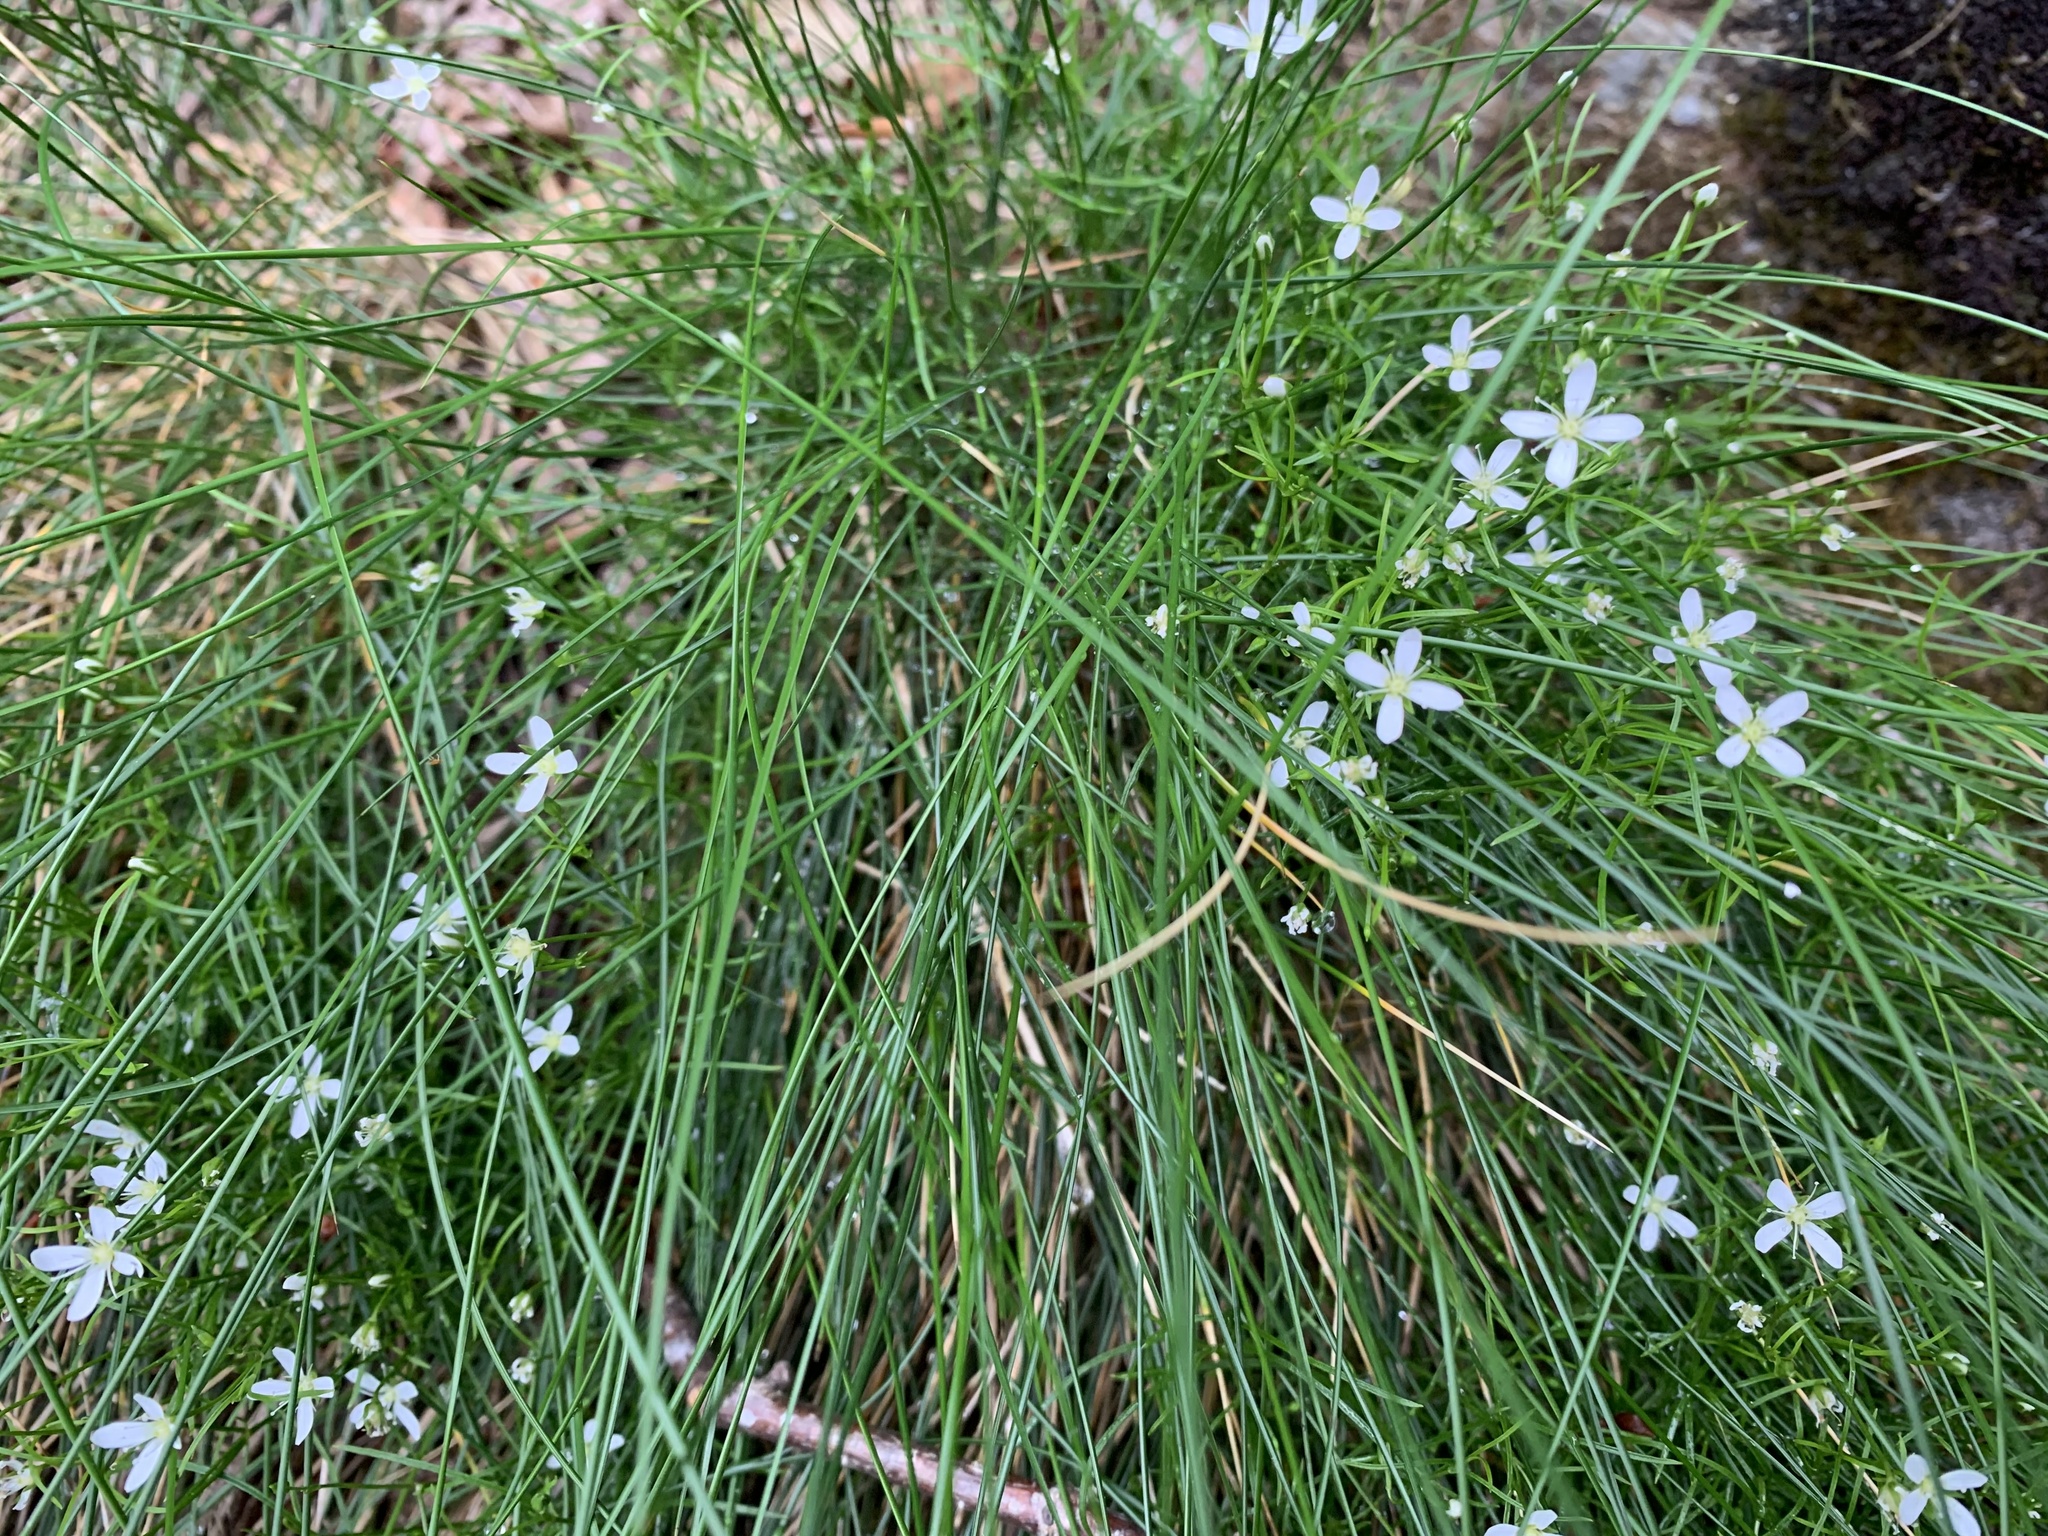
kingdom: Plantae
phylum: Tracheophyta
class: Magnoliopsida
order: Caryophyllales
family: Caryophyllaceae
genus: Moehringia
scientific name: Moehringia muscosa
